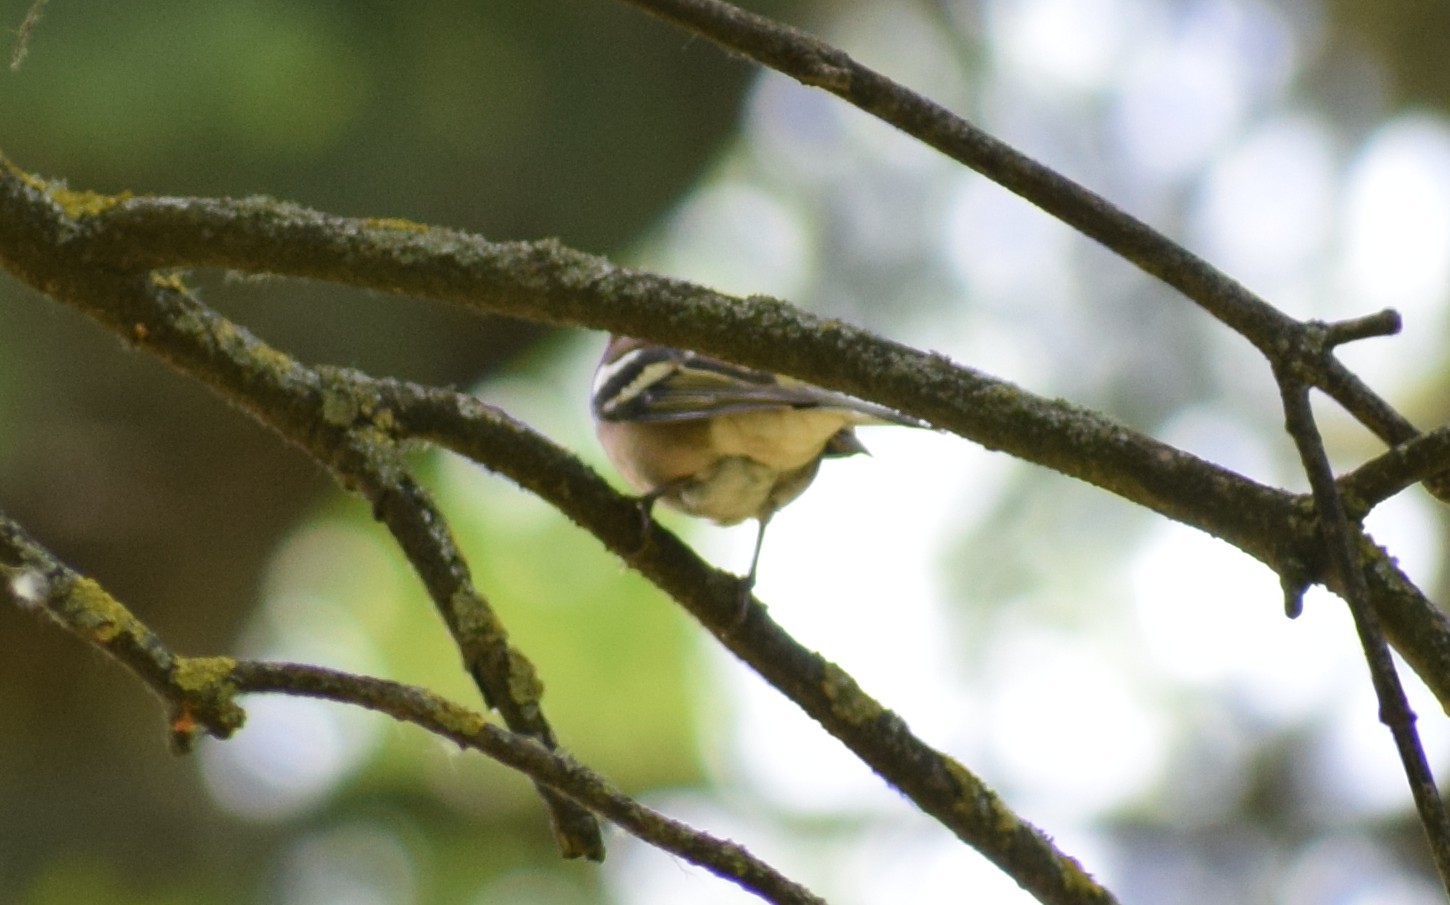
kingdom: Animalia
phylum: Chordata
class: Aves
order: Passeriformes
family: Fringillidae
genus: Fringilla
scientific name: Fringilla coelebs
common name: Common chaffinch
